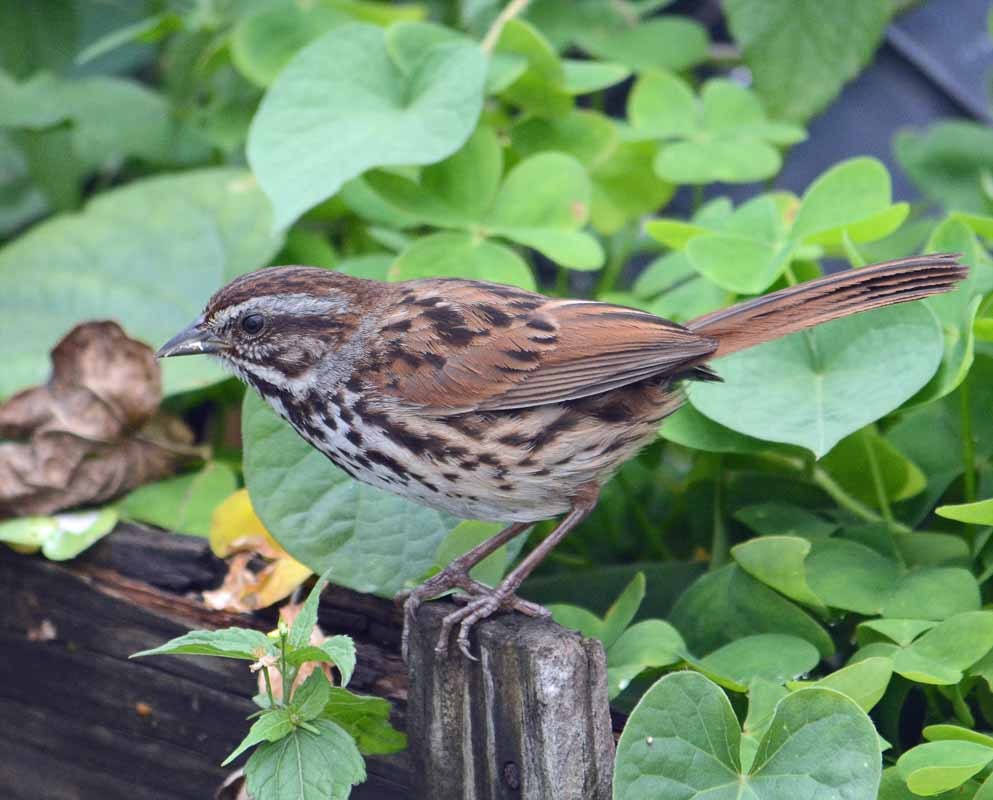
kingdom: Animalia
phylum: Chordata
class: Aves
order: Passeriformes
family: Passerellidae
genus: Melospiza
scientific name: Melospiza melodia
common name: Song sparrow
